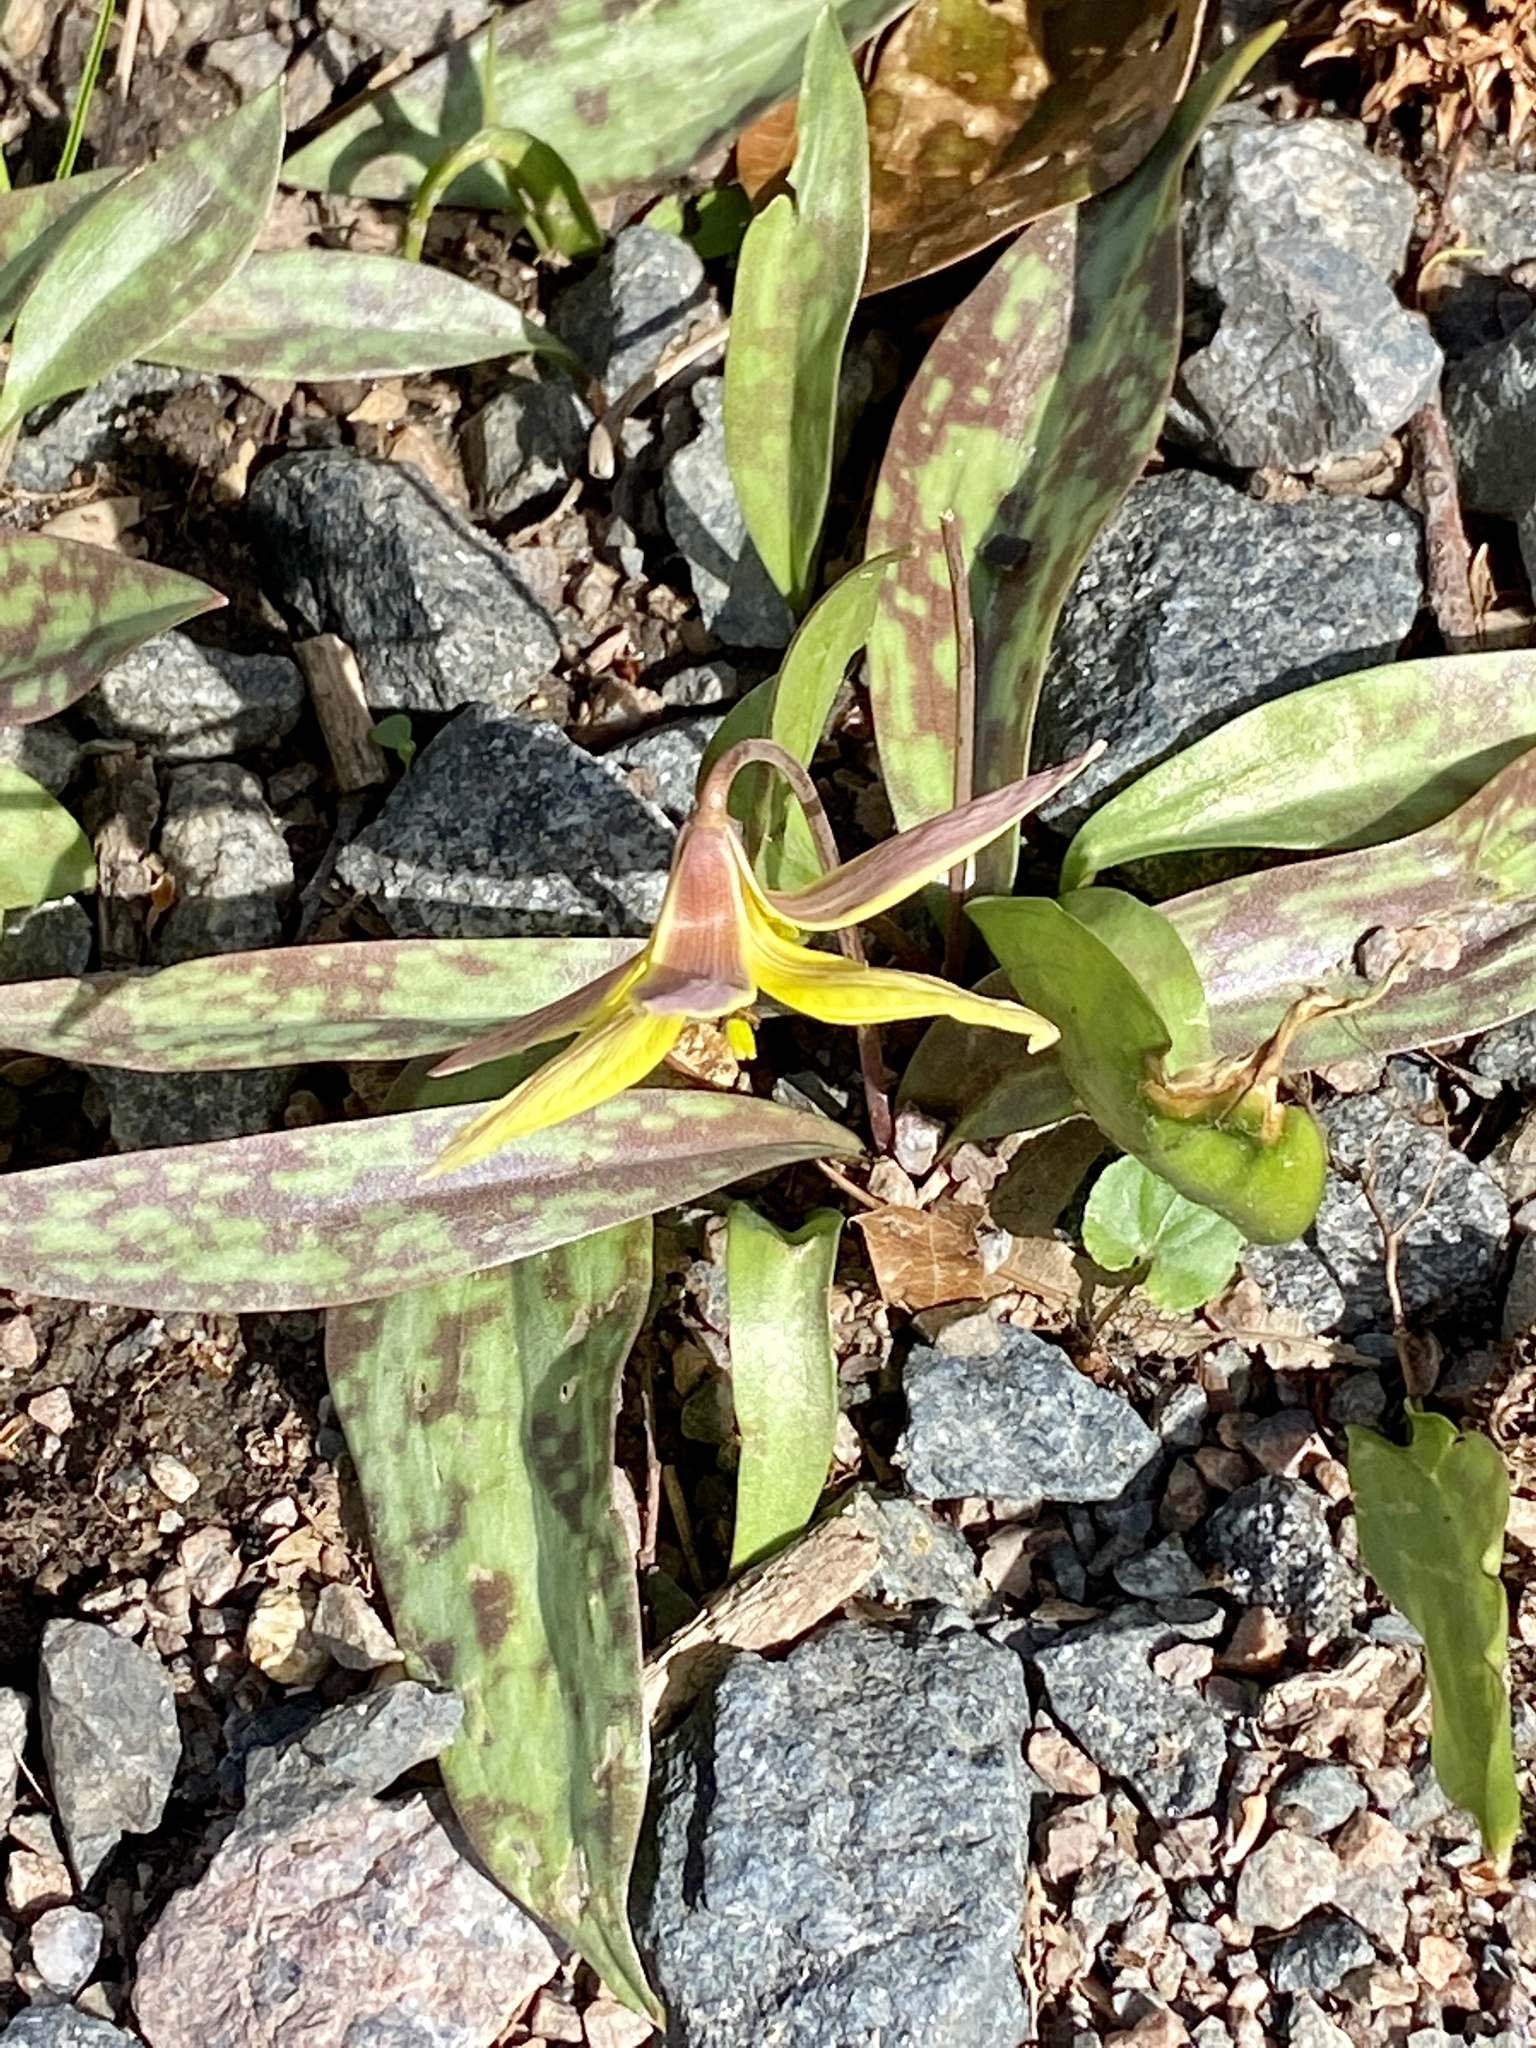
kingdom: Plantae
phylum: Tracheophyta
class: Liliopsida
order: Liliales
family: Liliaceae
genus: Erythronium
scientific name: Erythronium americanum
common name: Yellow adder's-tongue
